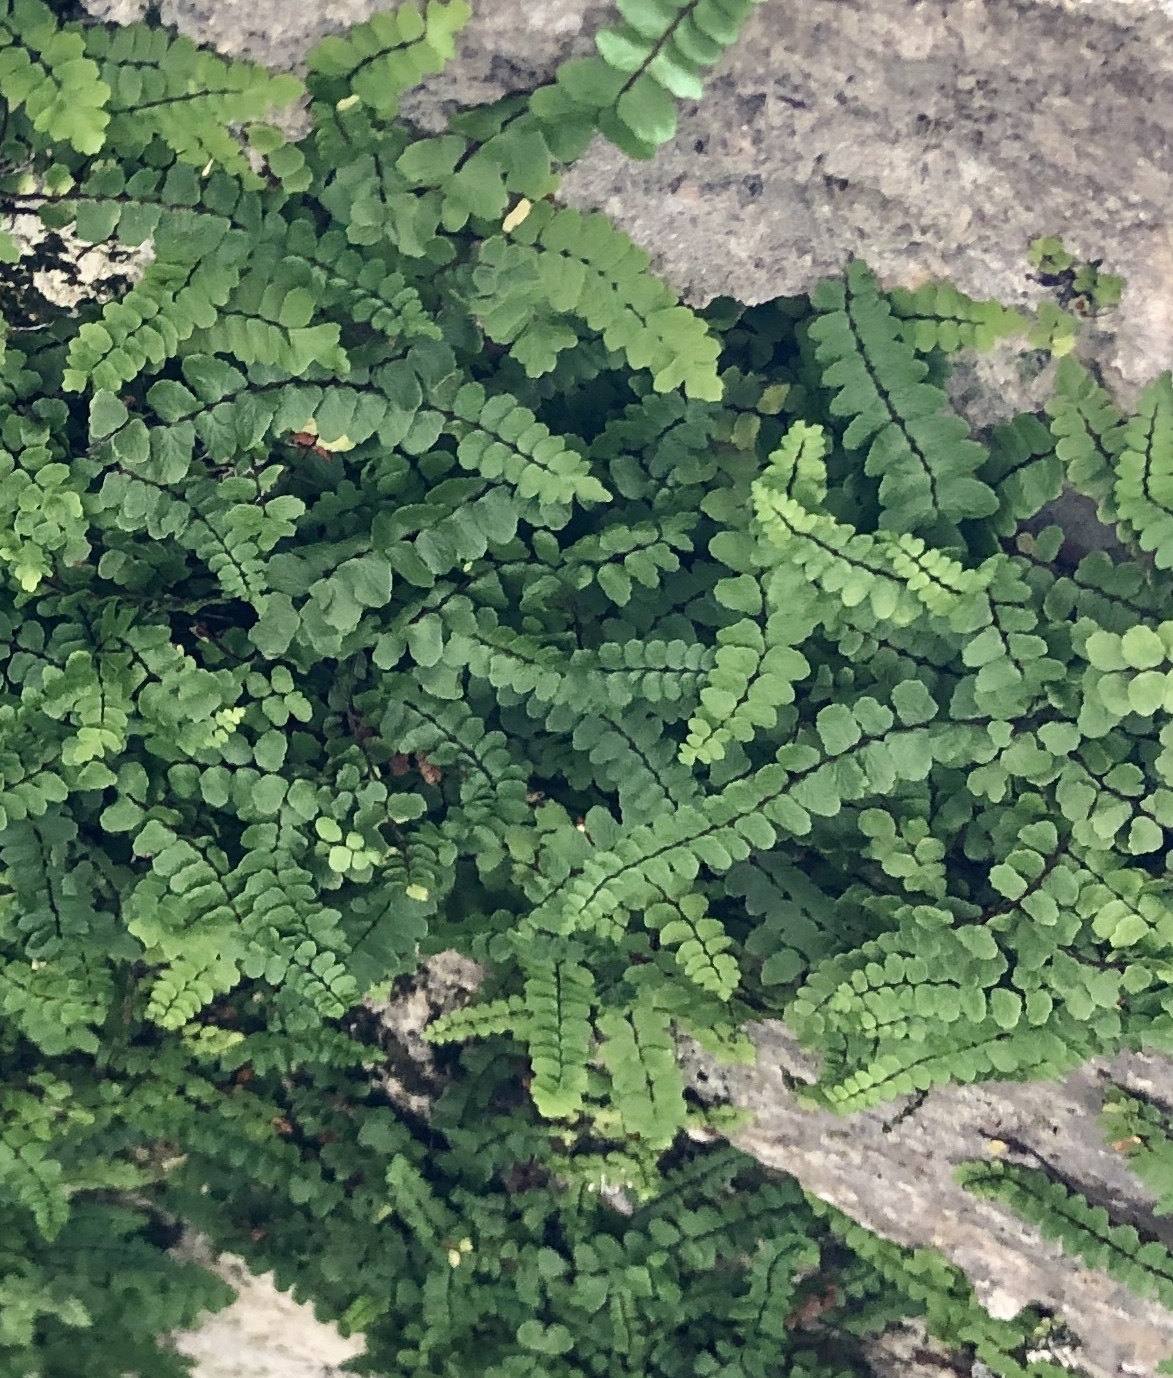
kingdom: Plantae
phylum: Tracheophyta
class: Polypodiopsida
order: Polypodiales
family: Aspleniaceae
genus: Asplenium
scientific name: Asplenium trichomanes
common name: Maidenhair spleenwort
